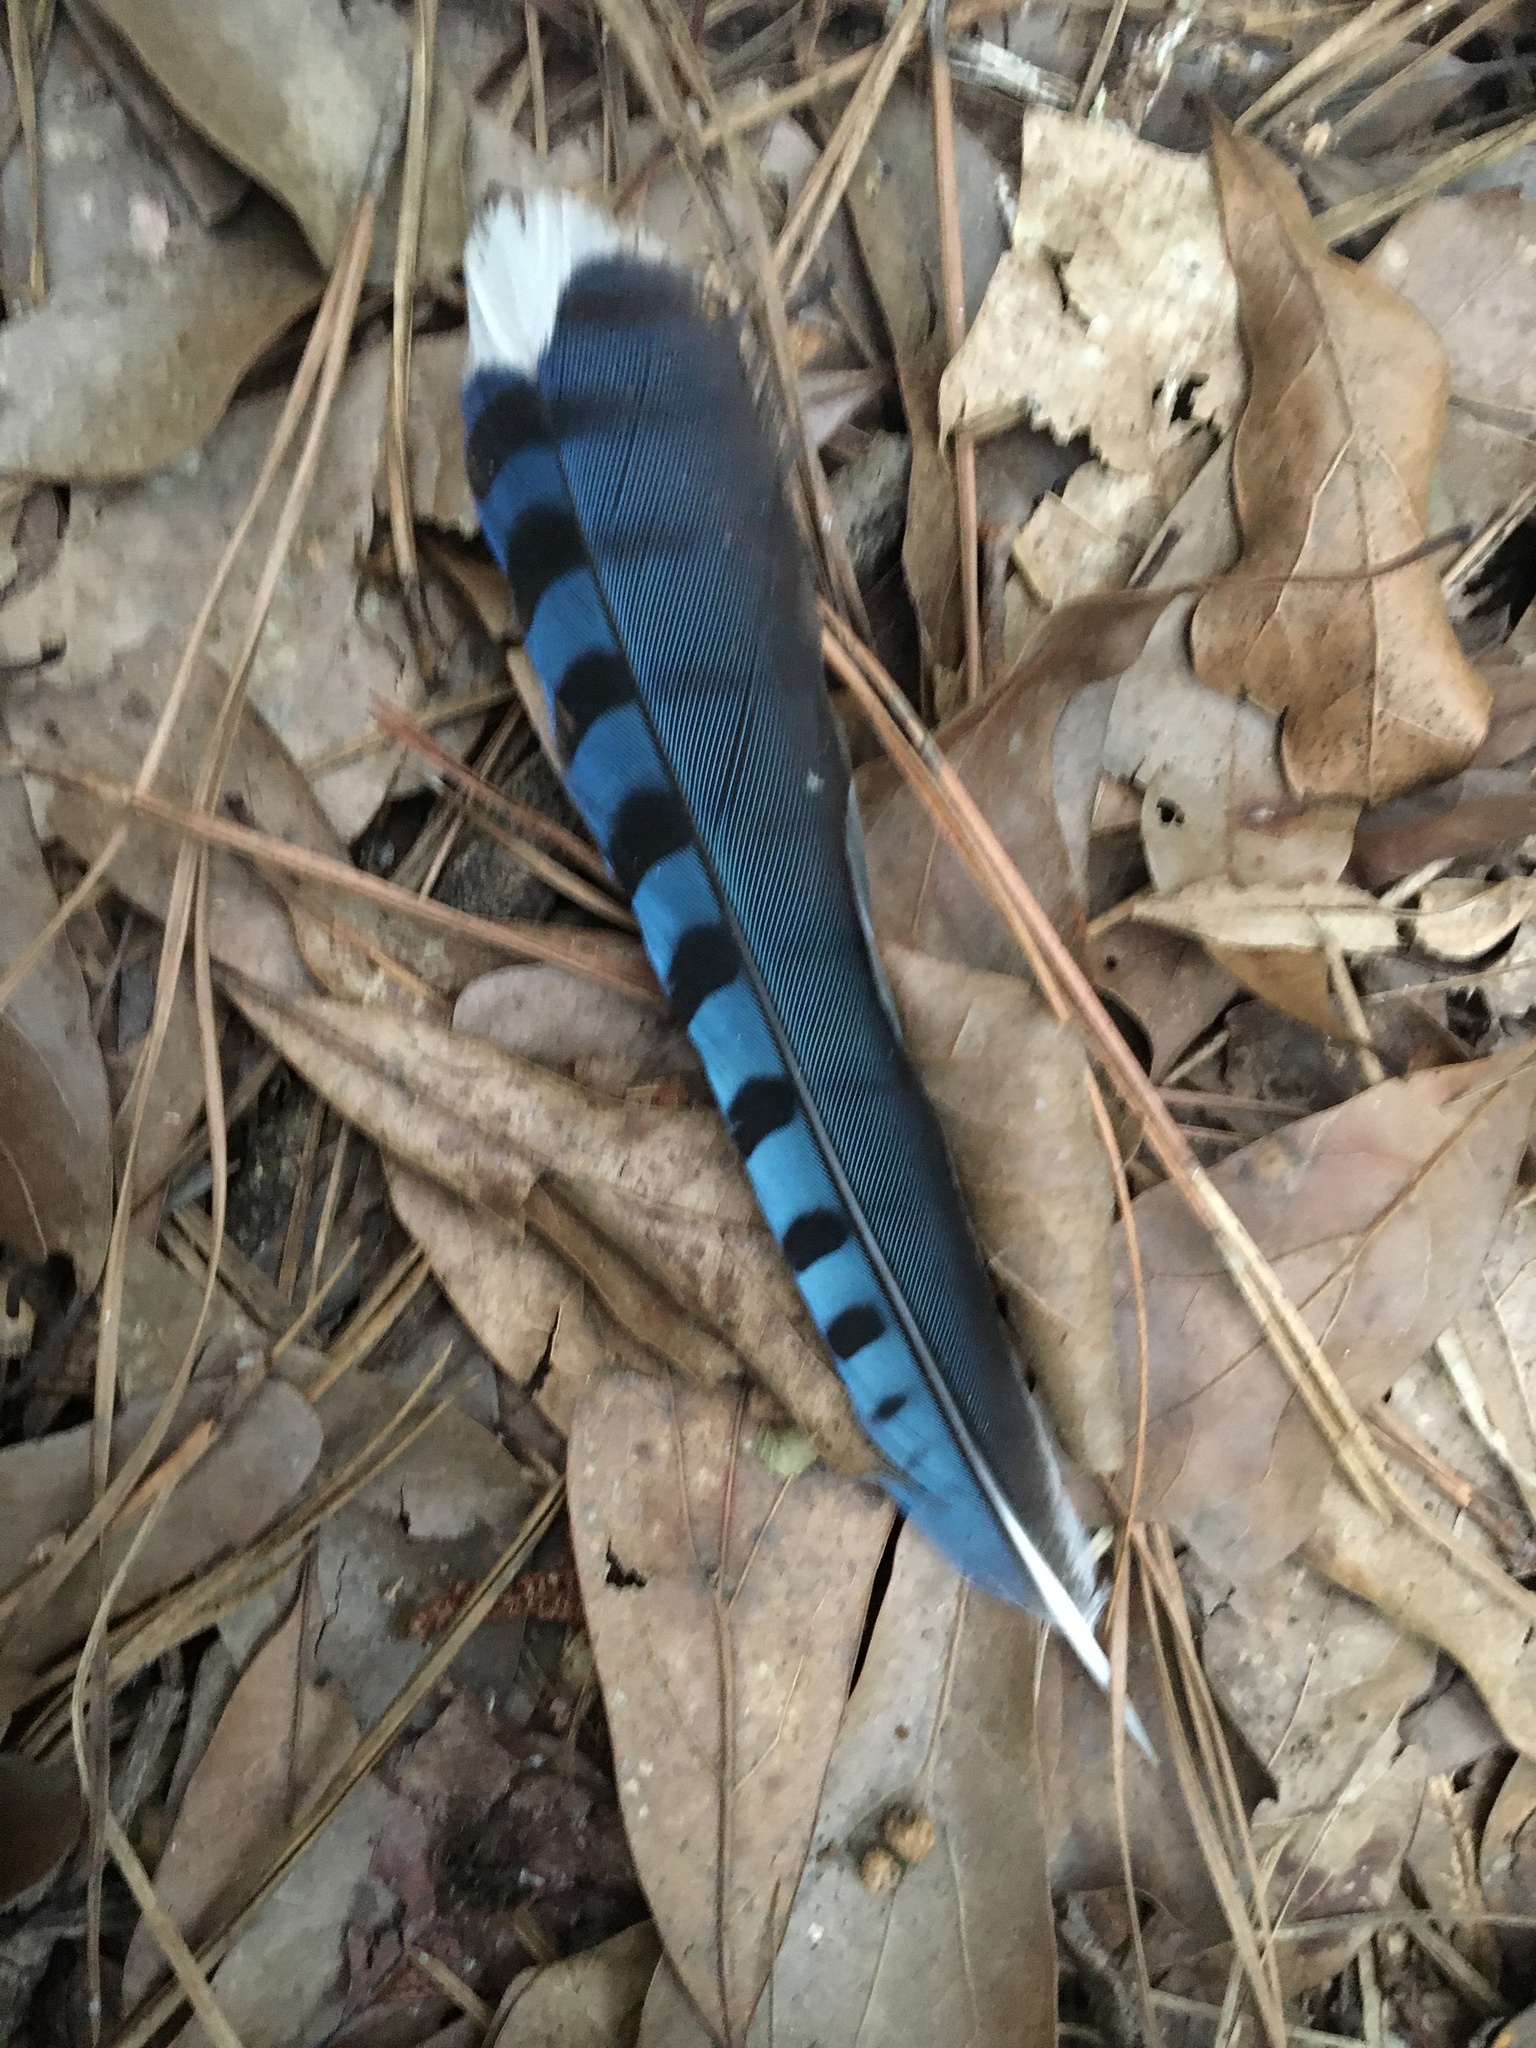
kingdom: Animalia
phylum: Chordata
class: Aves
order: Passeriformes
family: Corvidae
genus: Cyanocitta
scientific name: Cyanocitta cristata
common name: Blue jay
